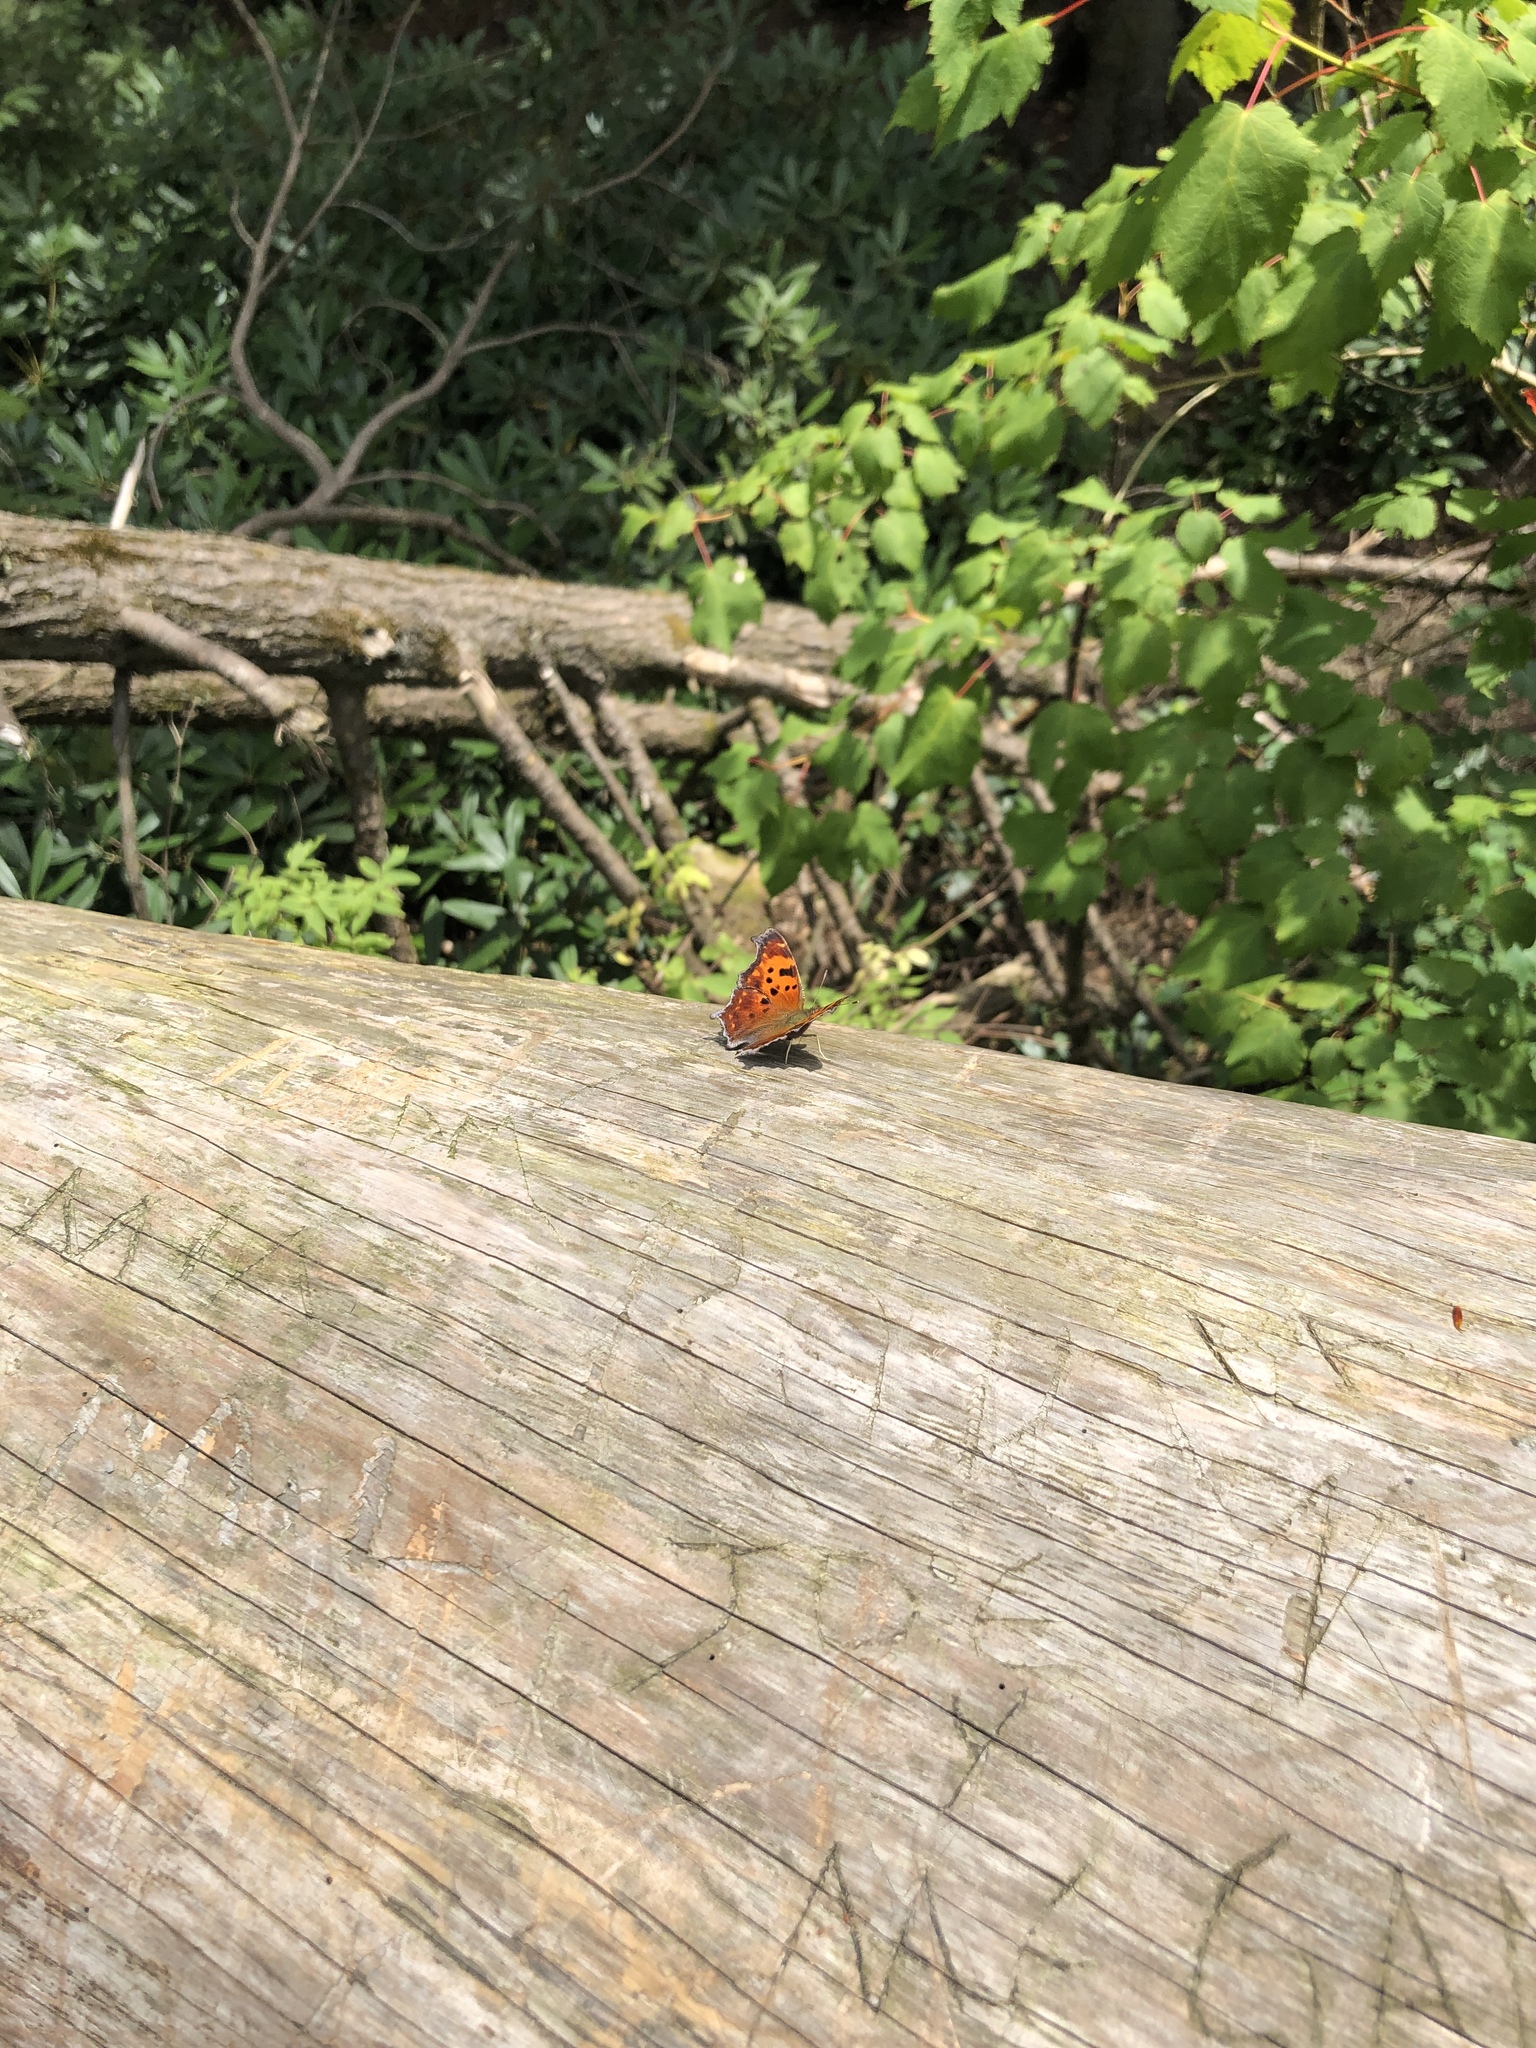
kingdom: Animalia
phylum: Arthropoda
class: Insecta
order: Lepidoptera
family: Nymphalidae
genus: Polygonia
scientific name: Polygonia comma
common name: Eastern comma
